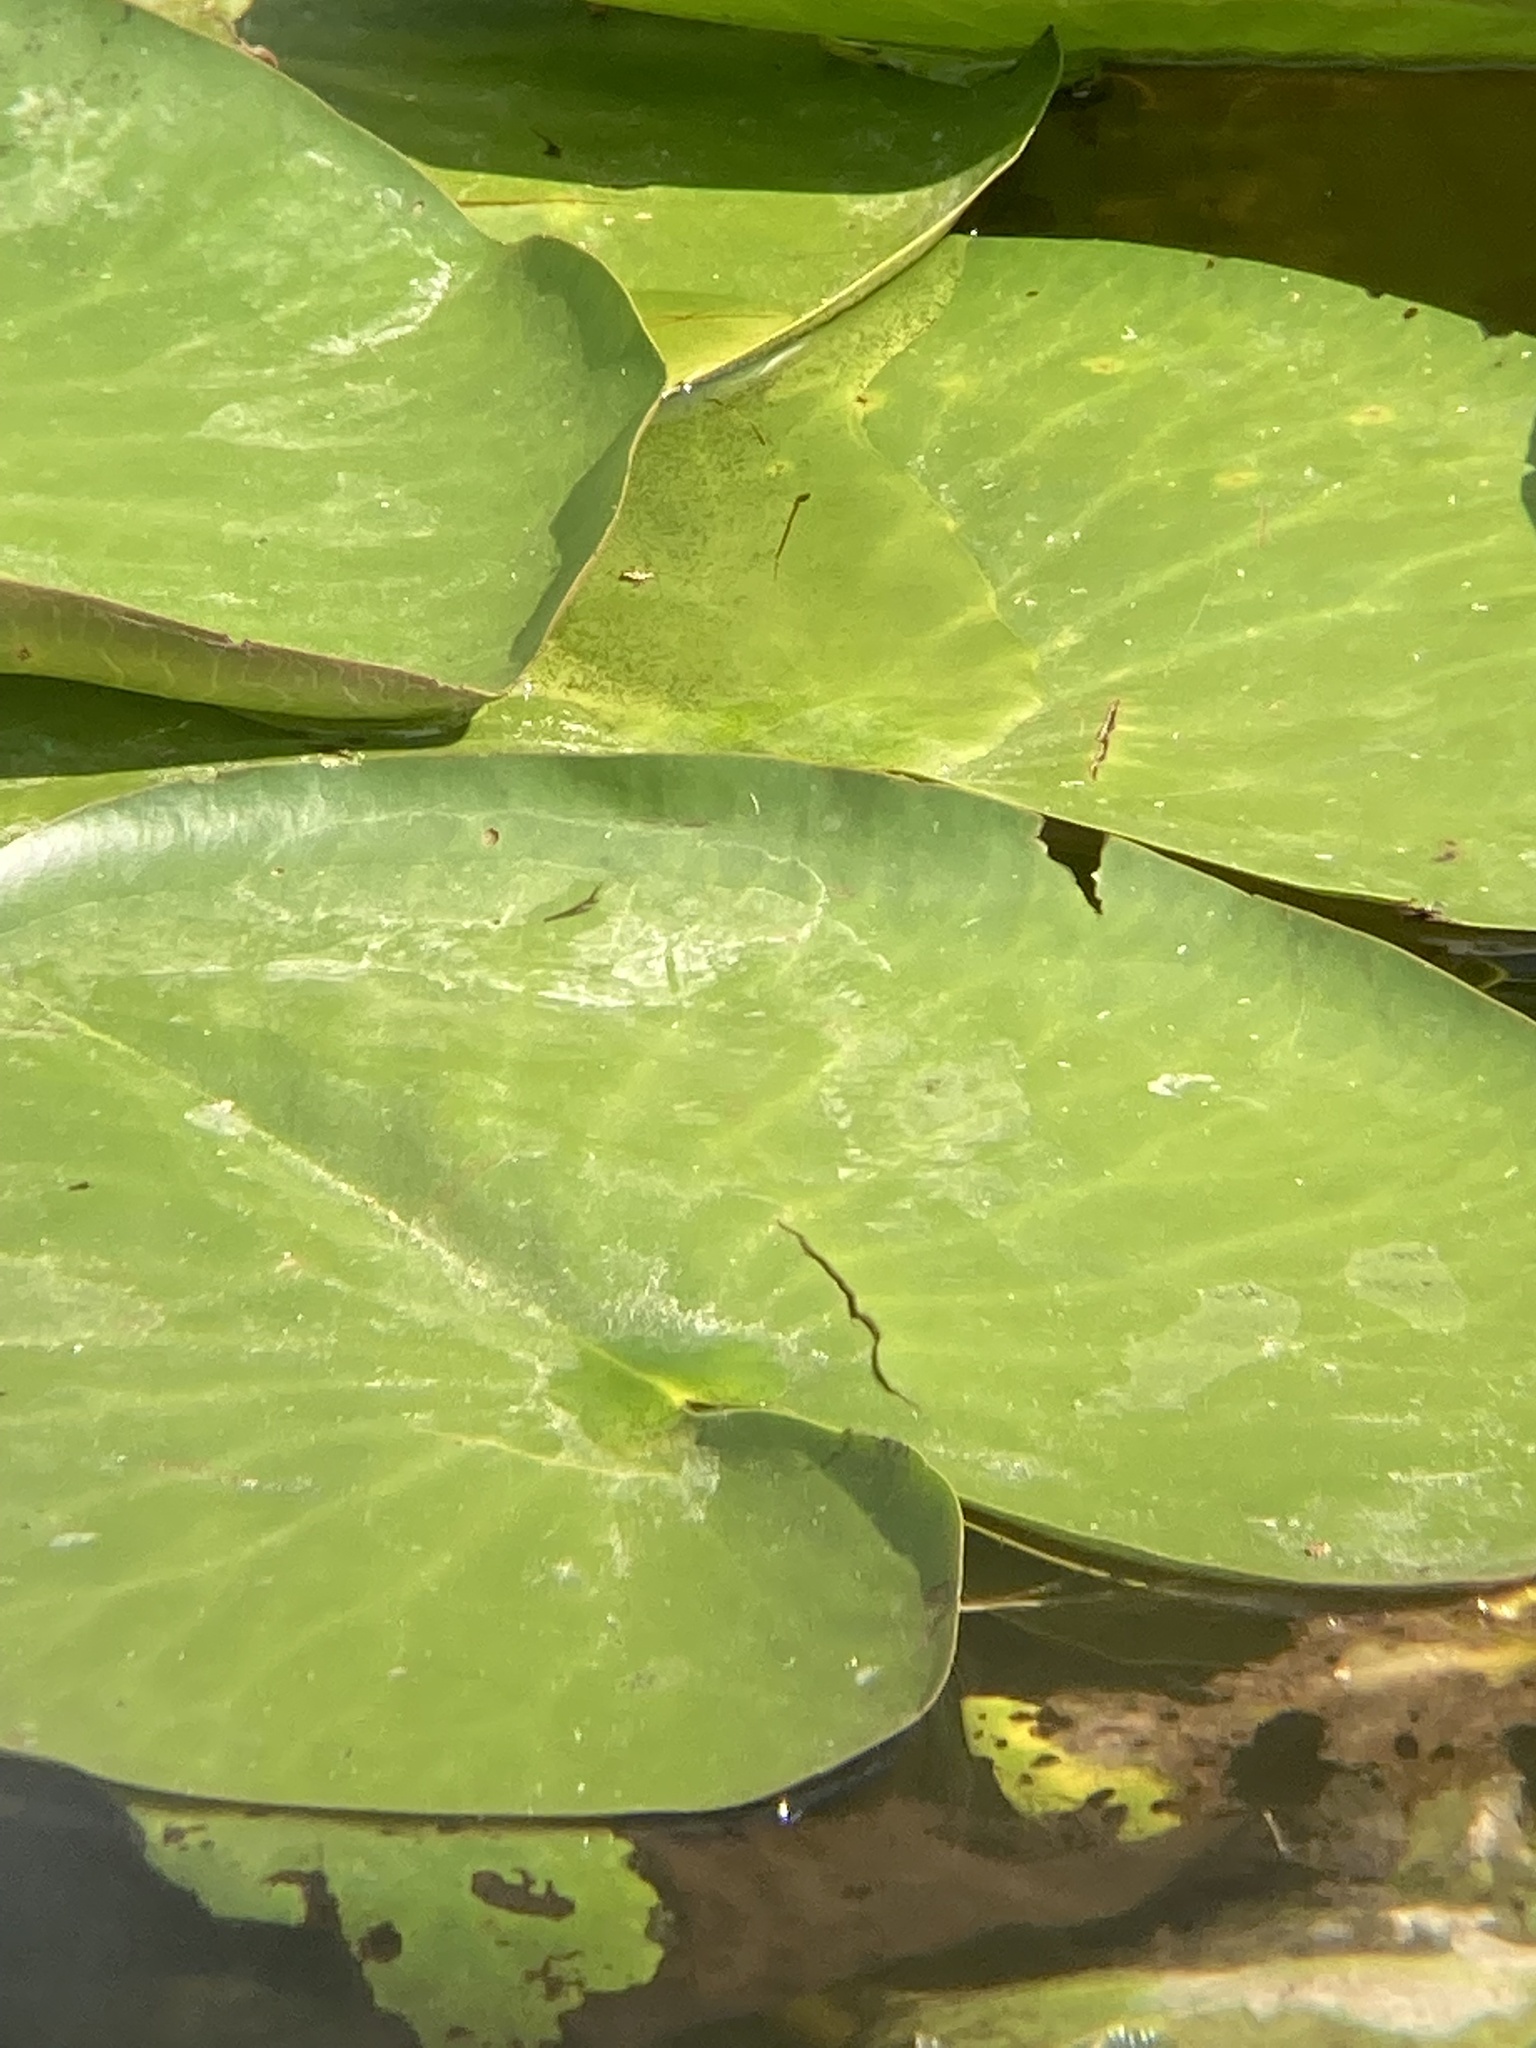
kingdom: Plantae
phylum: Tracheophyta
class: Magnoliopsida
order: Nymphaeales
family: Nymphaeaceae
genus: Nuphar
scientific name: Nuphar lutea
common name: Yellow water-lily
